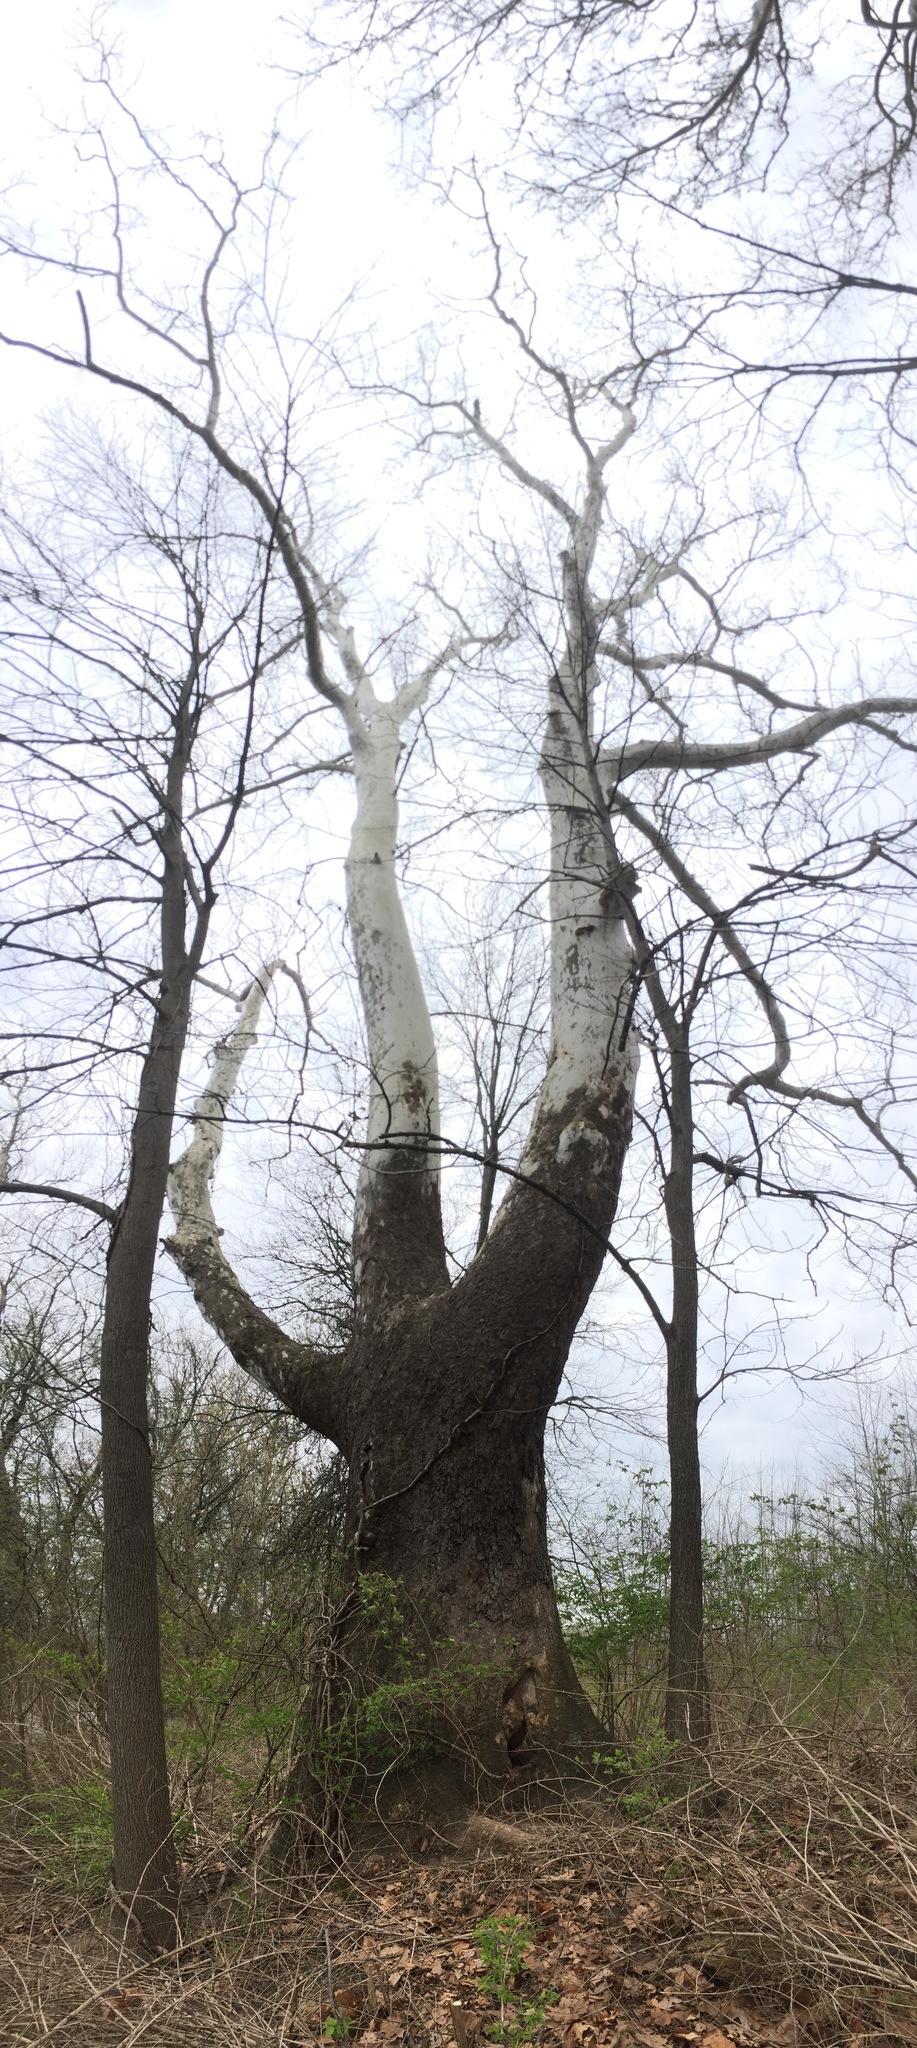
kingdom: Plantae
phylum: Tracheophyta
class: Magnoliopsida
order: Proteales
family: Platanaceae
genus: Platanus
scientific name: Platanus occidentalis
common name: American sycamore
